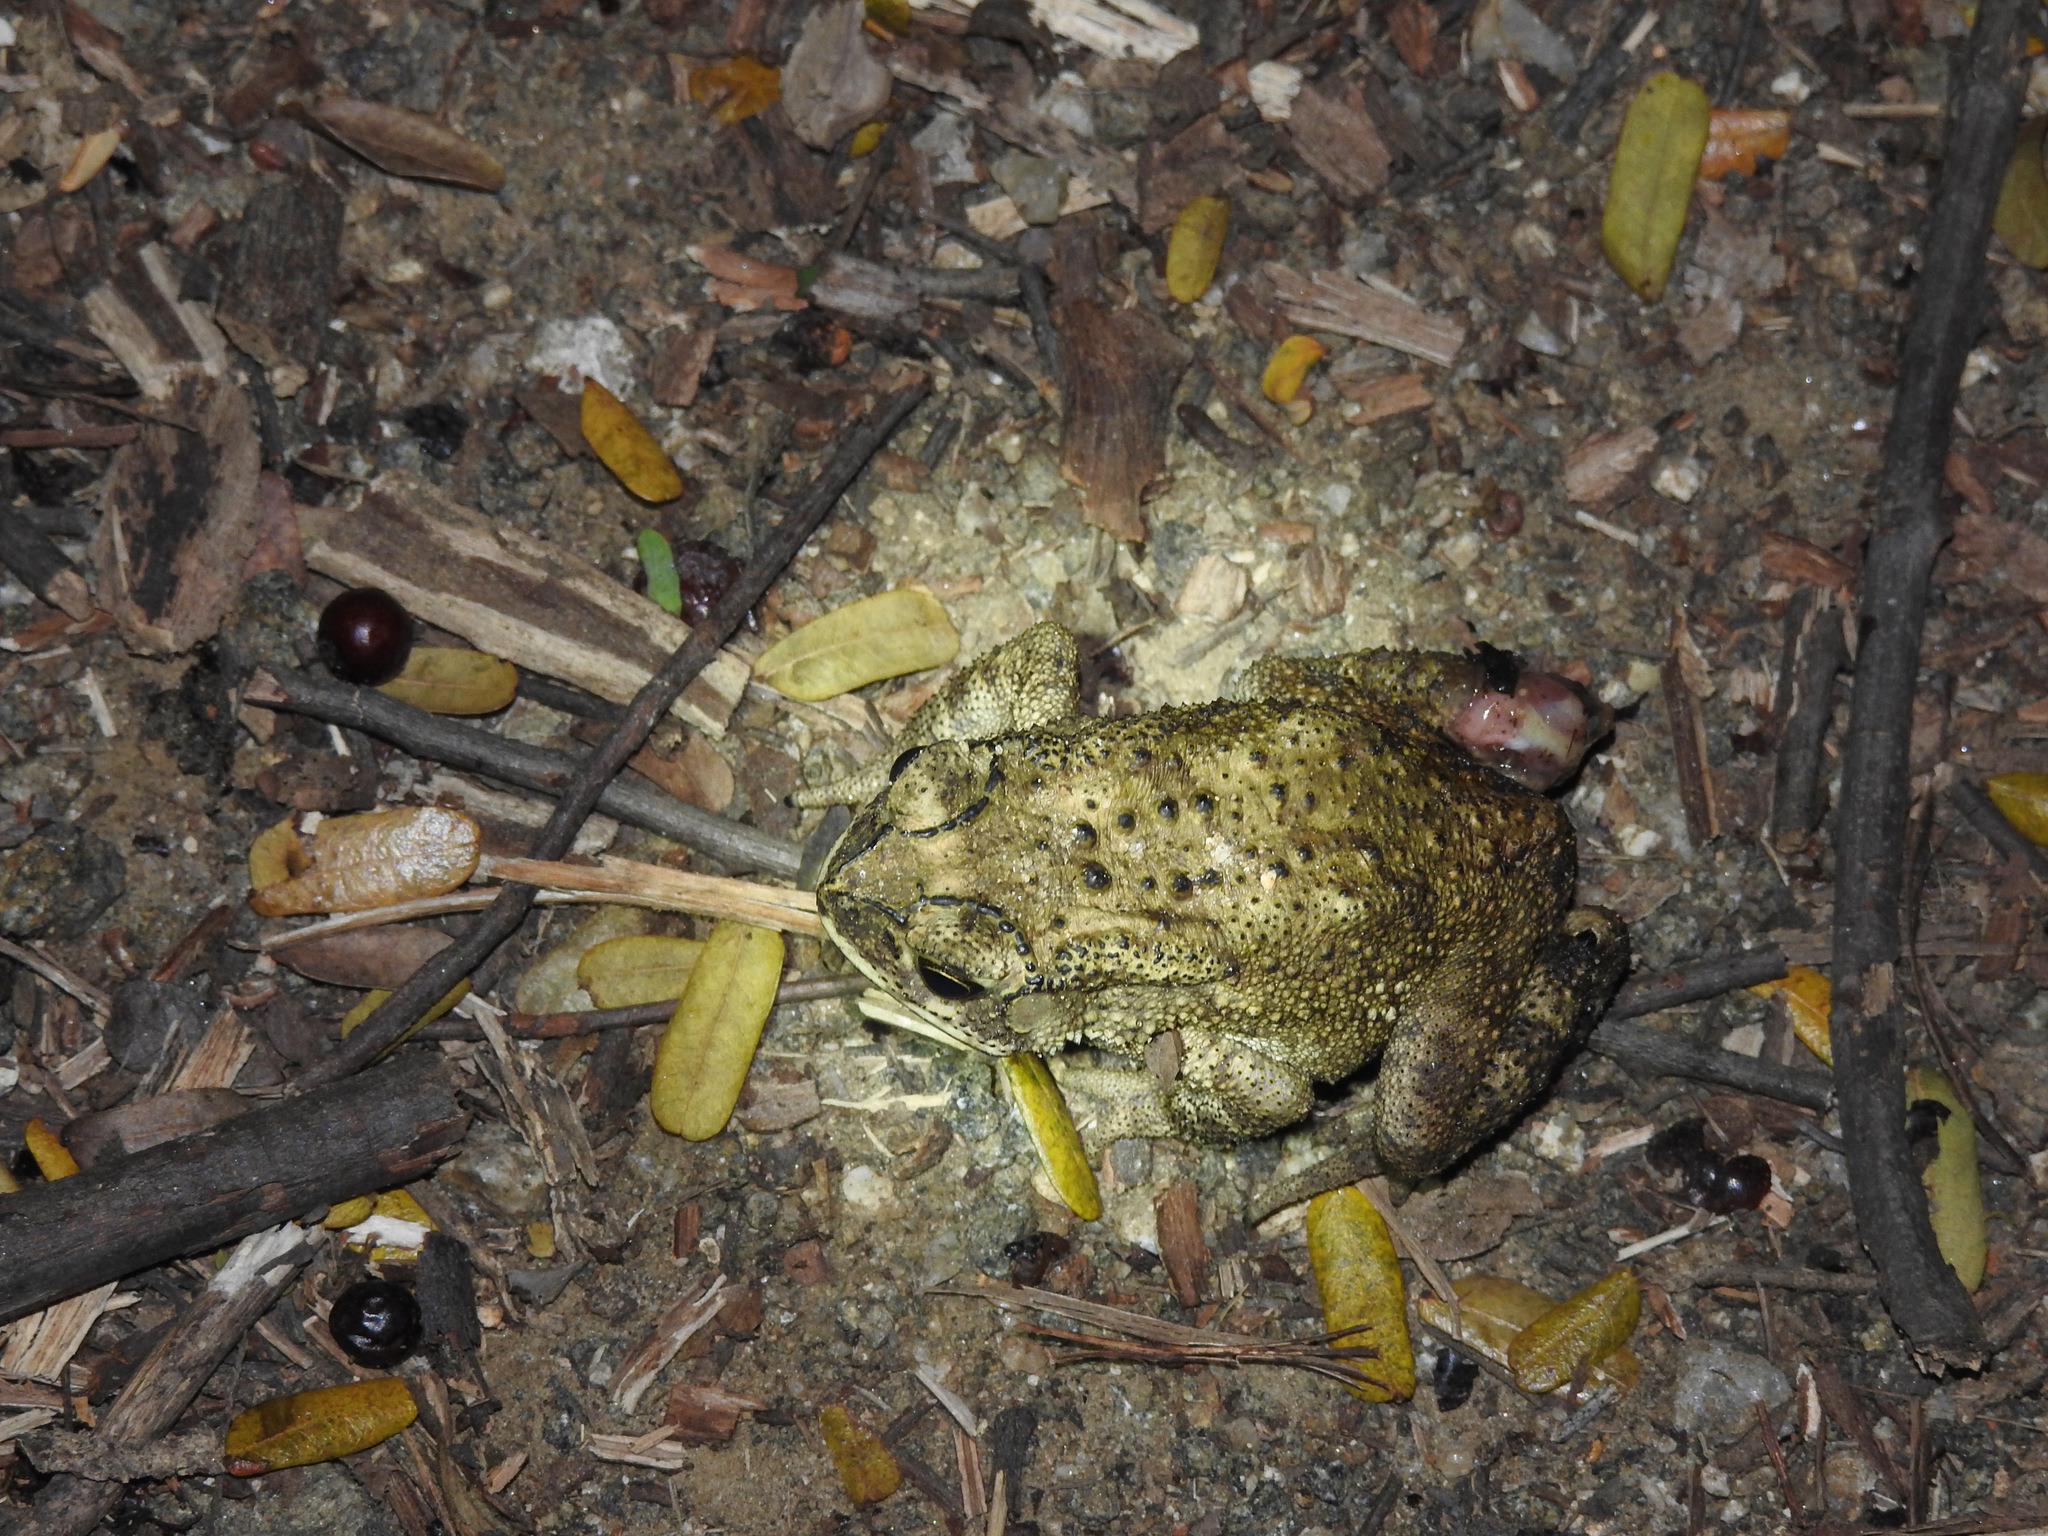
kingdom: Animalia
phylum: Chordata
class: Amphibia
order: Anura
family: Bufonidae
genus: Duttaphrynus
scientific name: Duttaphrynus melanostictus
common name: Common sunda toad
